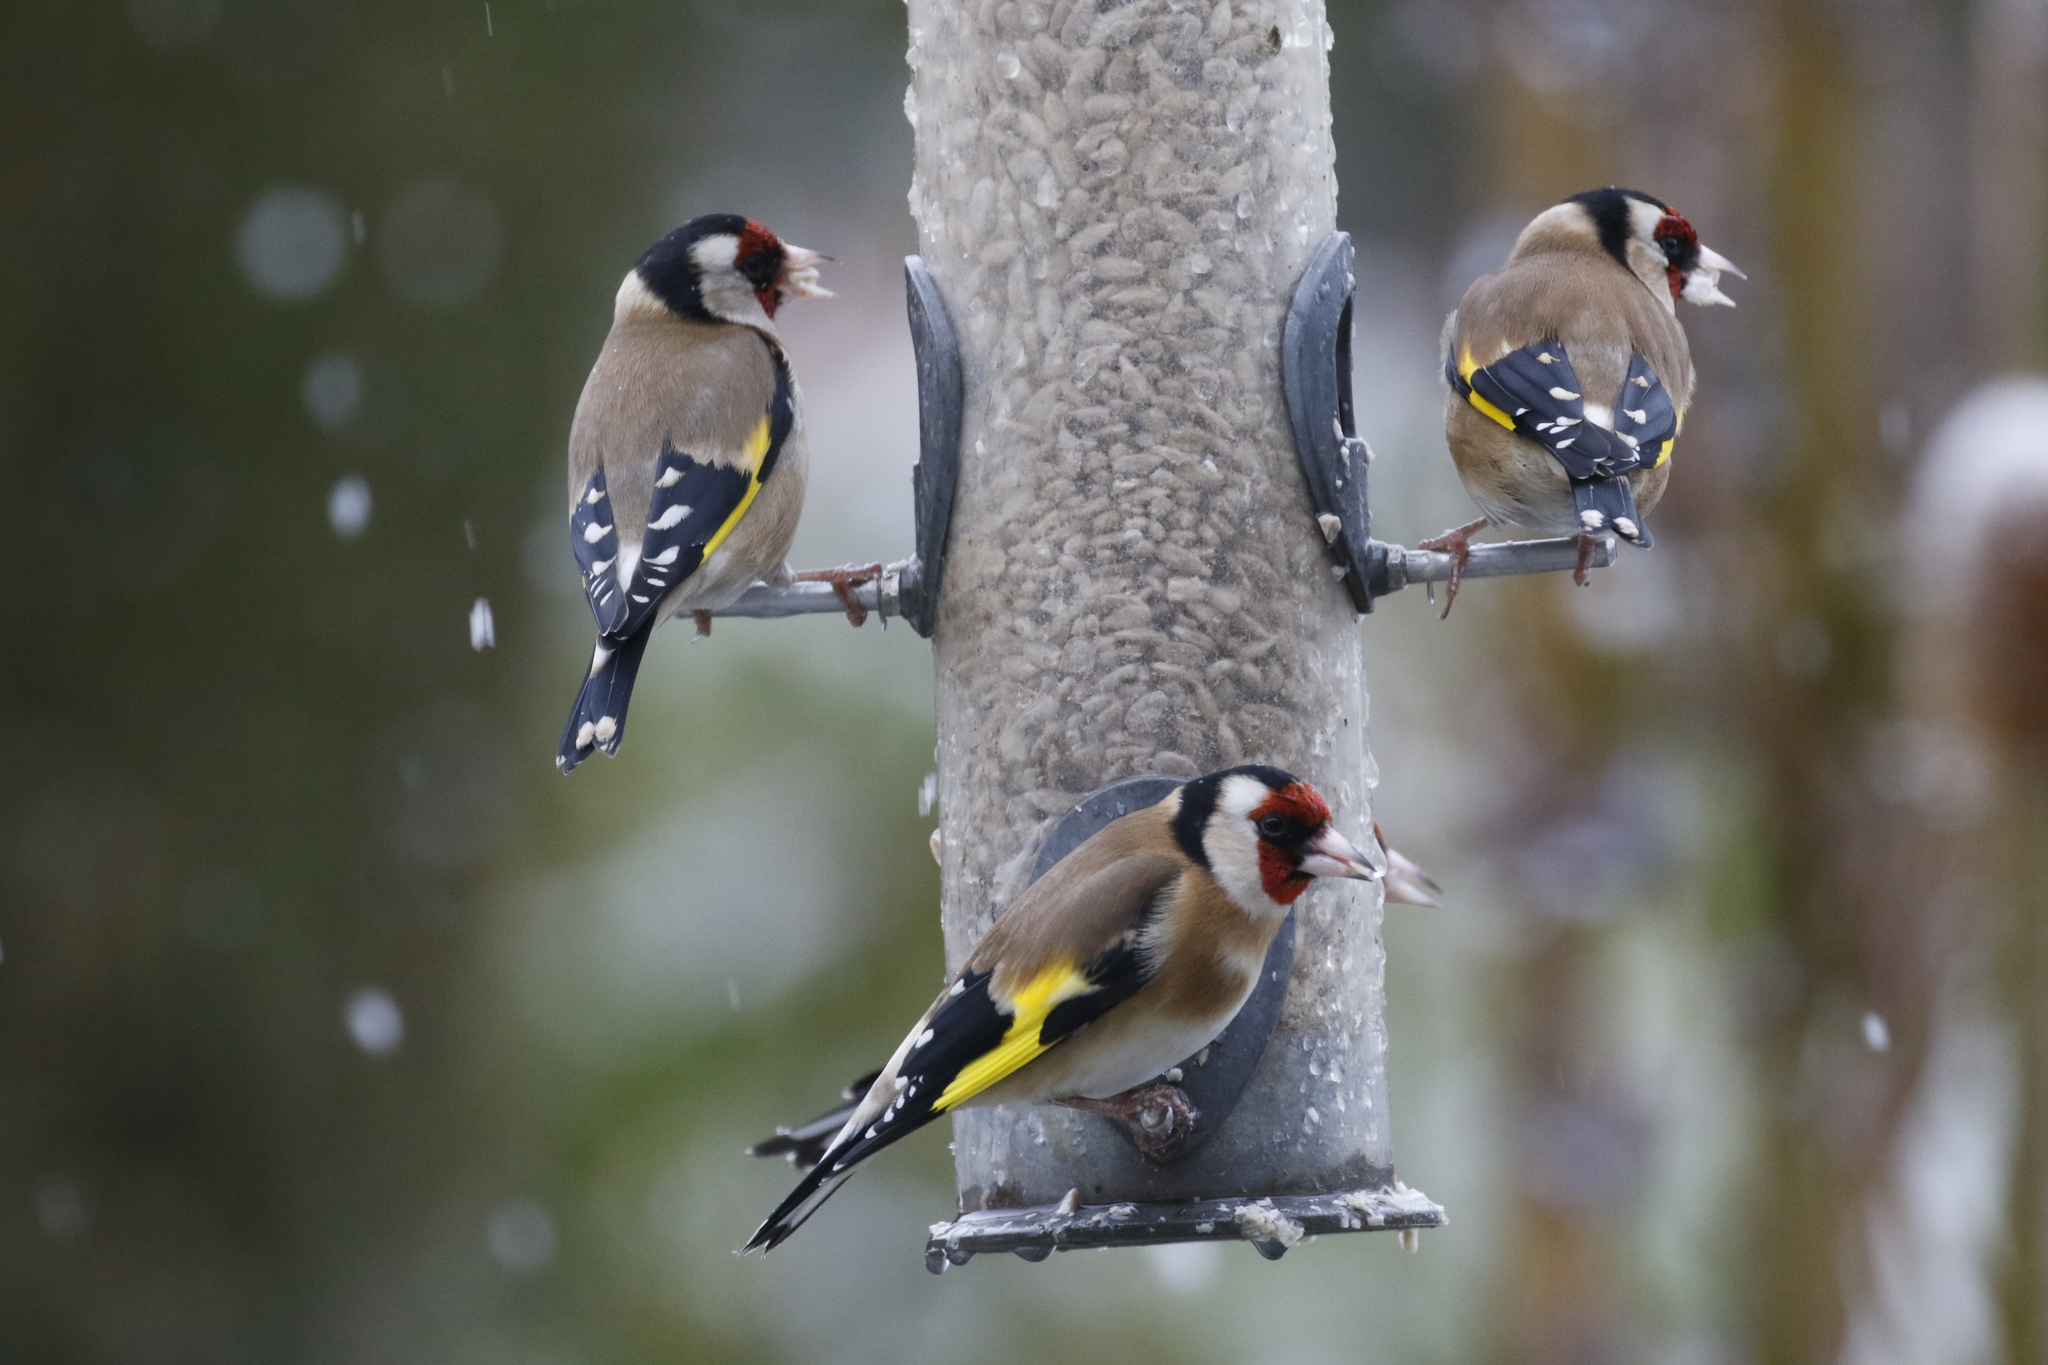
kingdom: Animalia
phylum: Chordata
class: Aves
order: Passeriformes
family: Fringillidae
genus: Carduelis
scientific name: Carduelis carduelis
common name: European goldfinch
